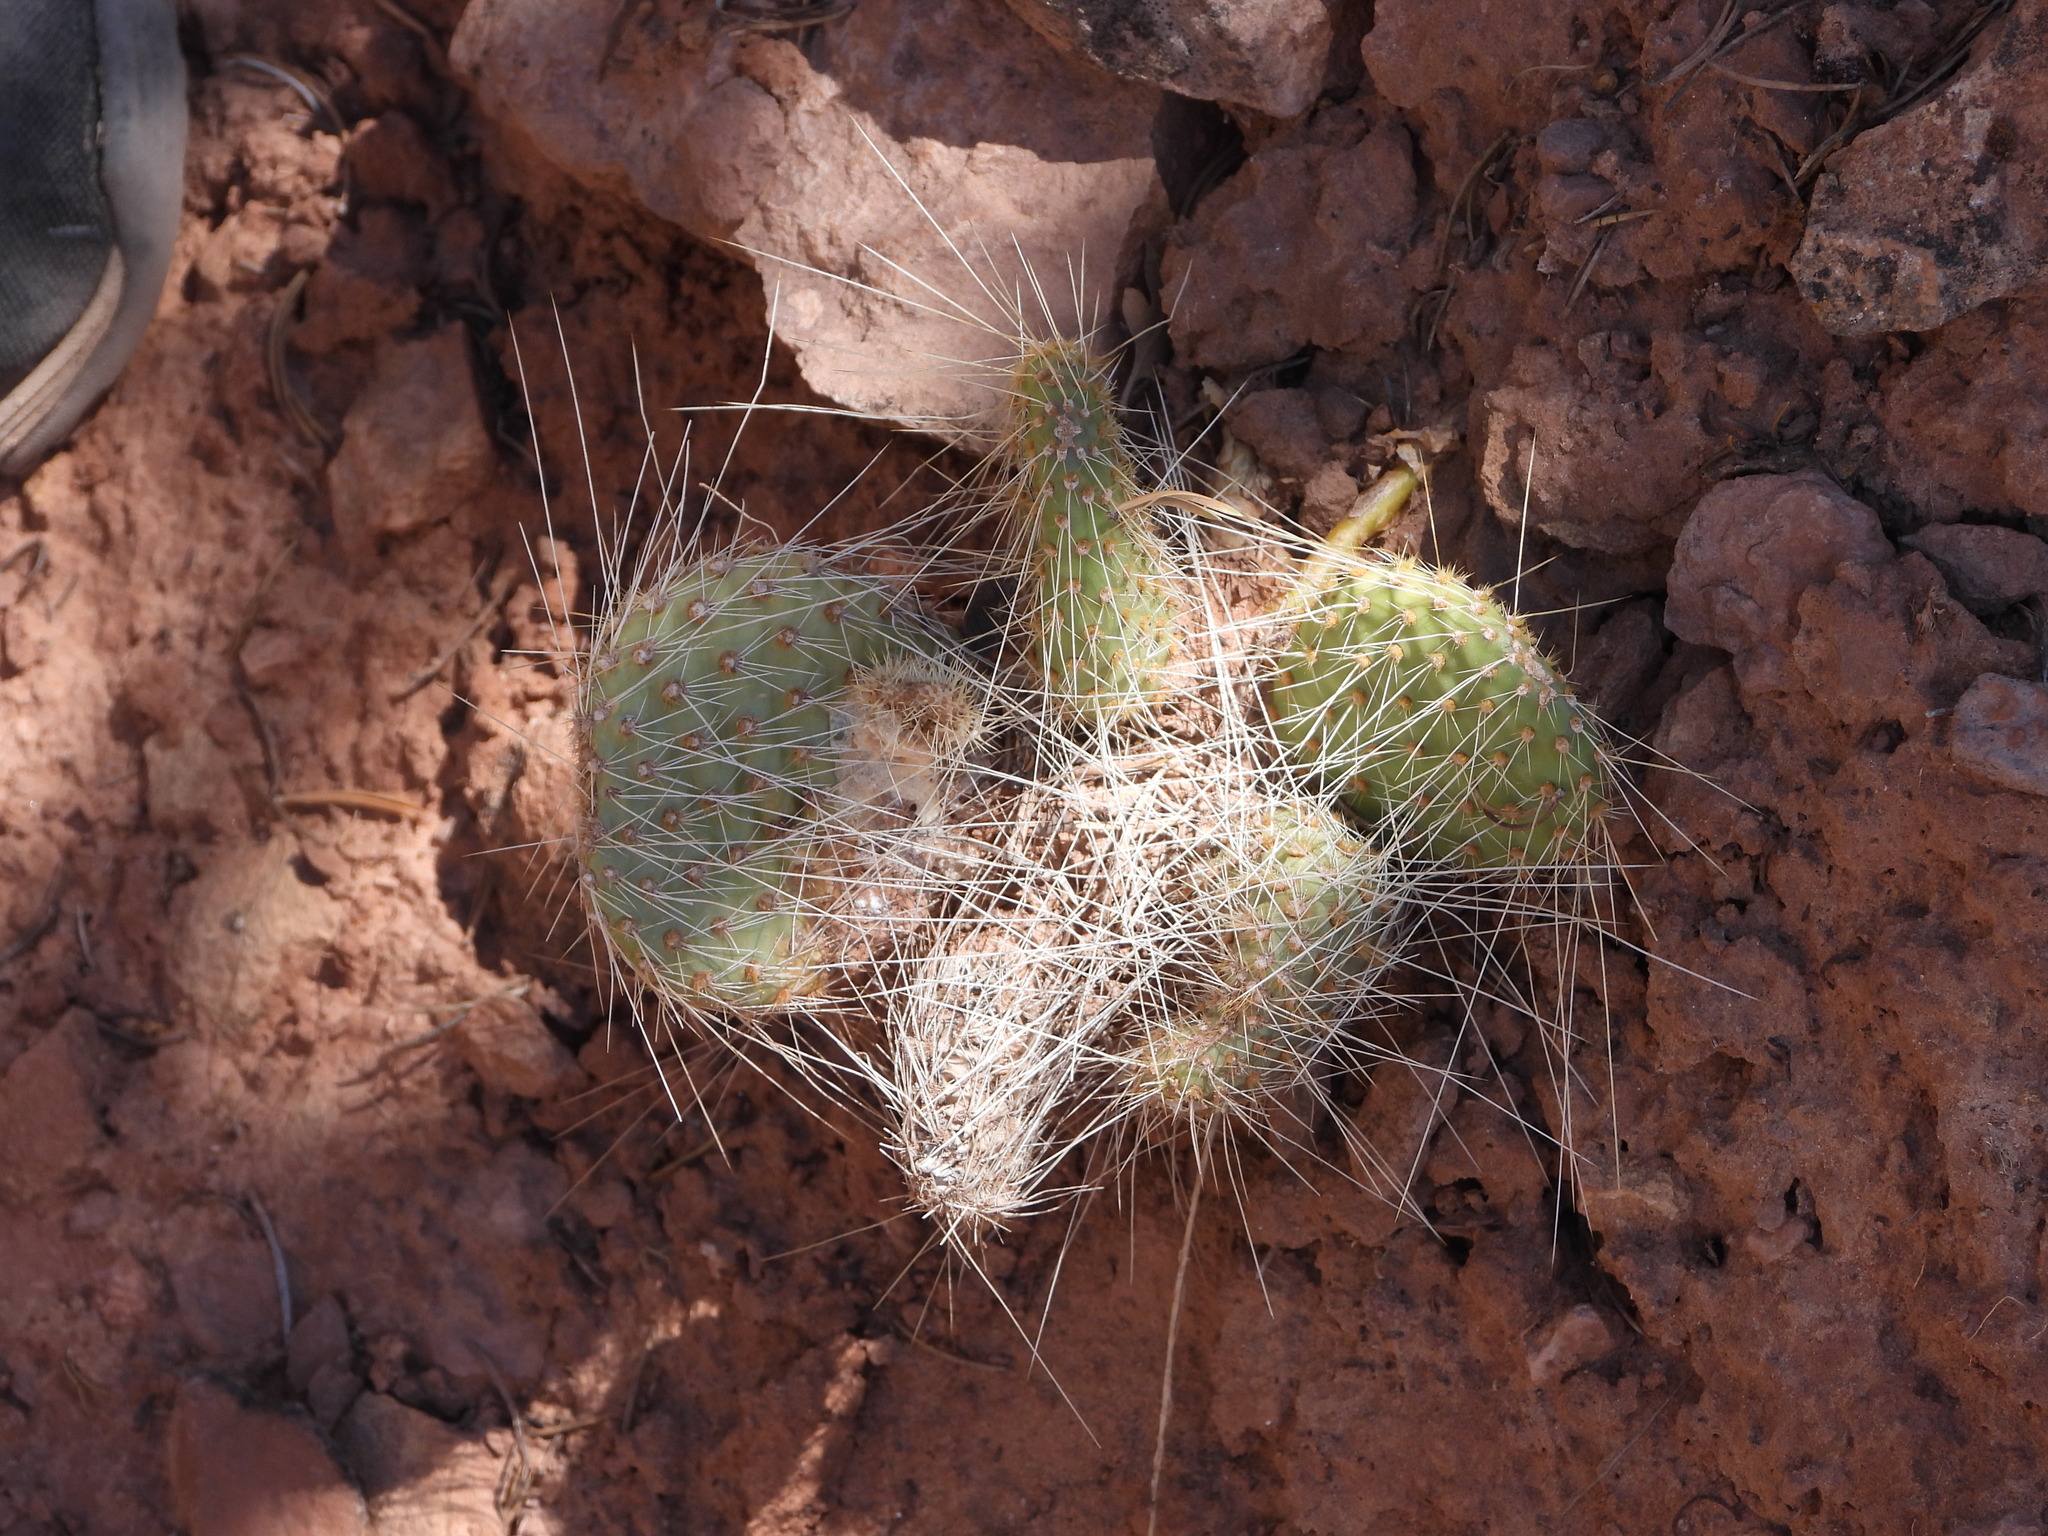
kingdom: Plantae
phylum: Tracheophyta
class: Magnoliopsida
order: Caryophyllales
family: Cactaceae
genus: Opuntia
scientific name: Opuntia polyacantha
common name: Plains prickly-pear
